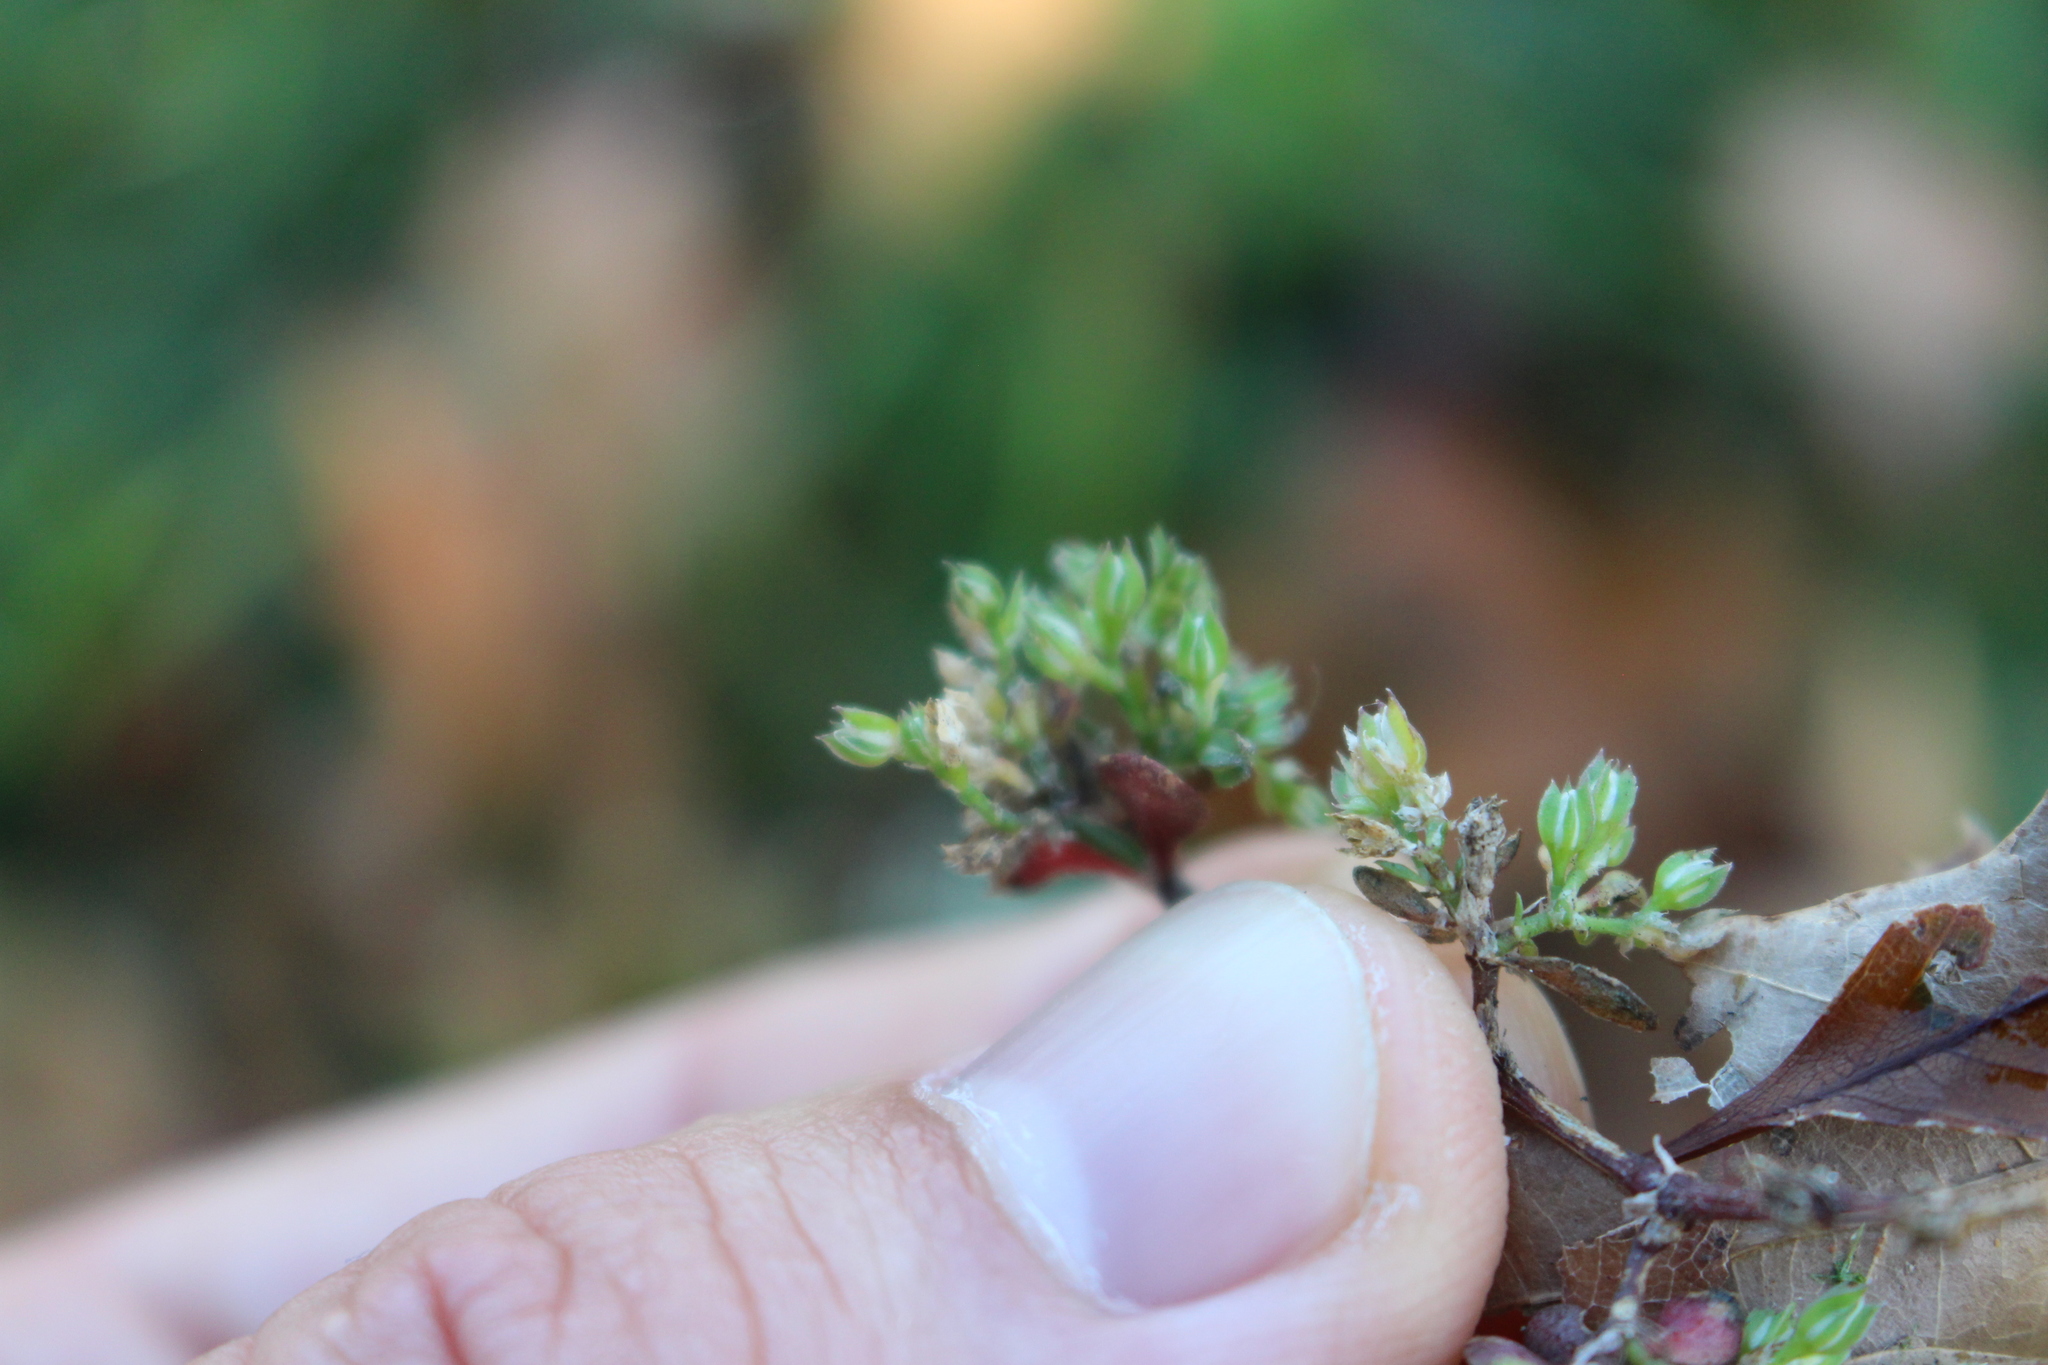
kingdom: Plantae
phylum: Tracheophyta
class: Magnoliopsida
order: Caryophyllales
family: Caryophyllaceae
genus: Polycarpon
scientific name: Polycarpon tetraphyllum
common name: Four-leaved all-seed
